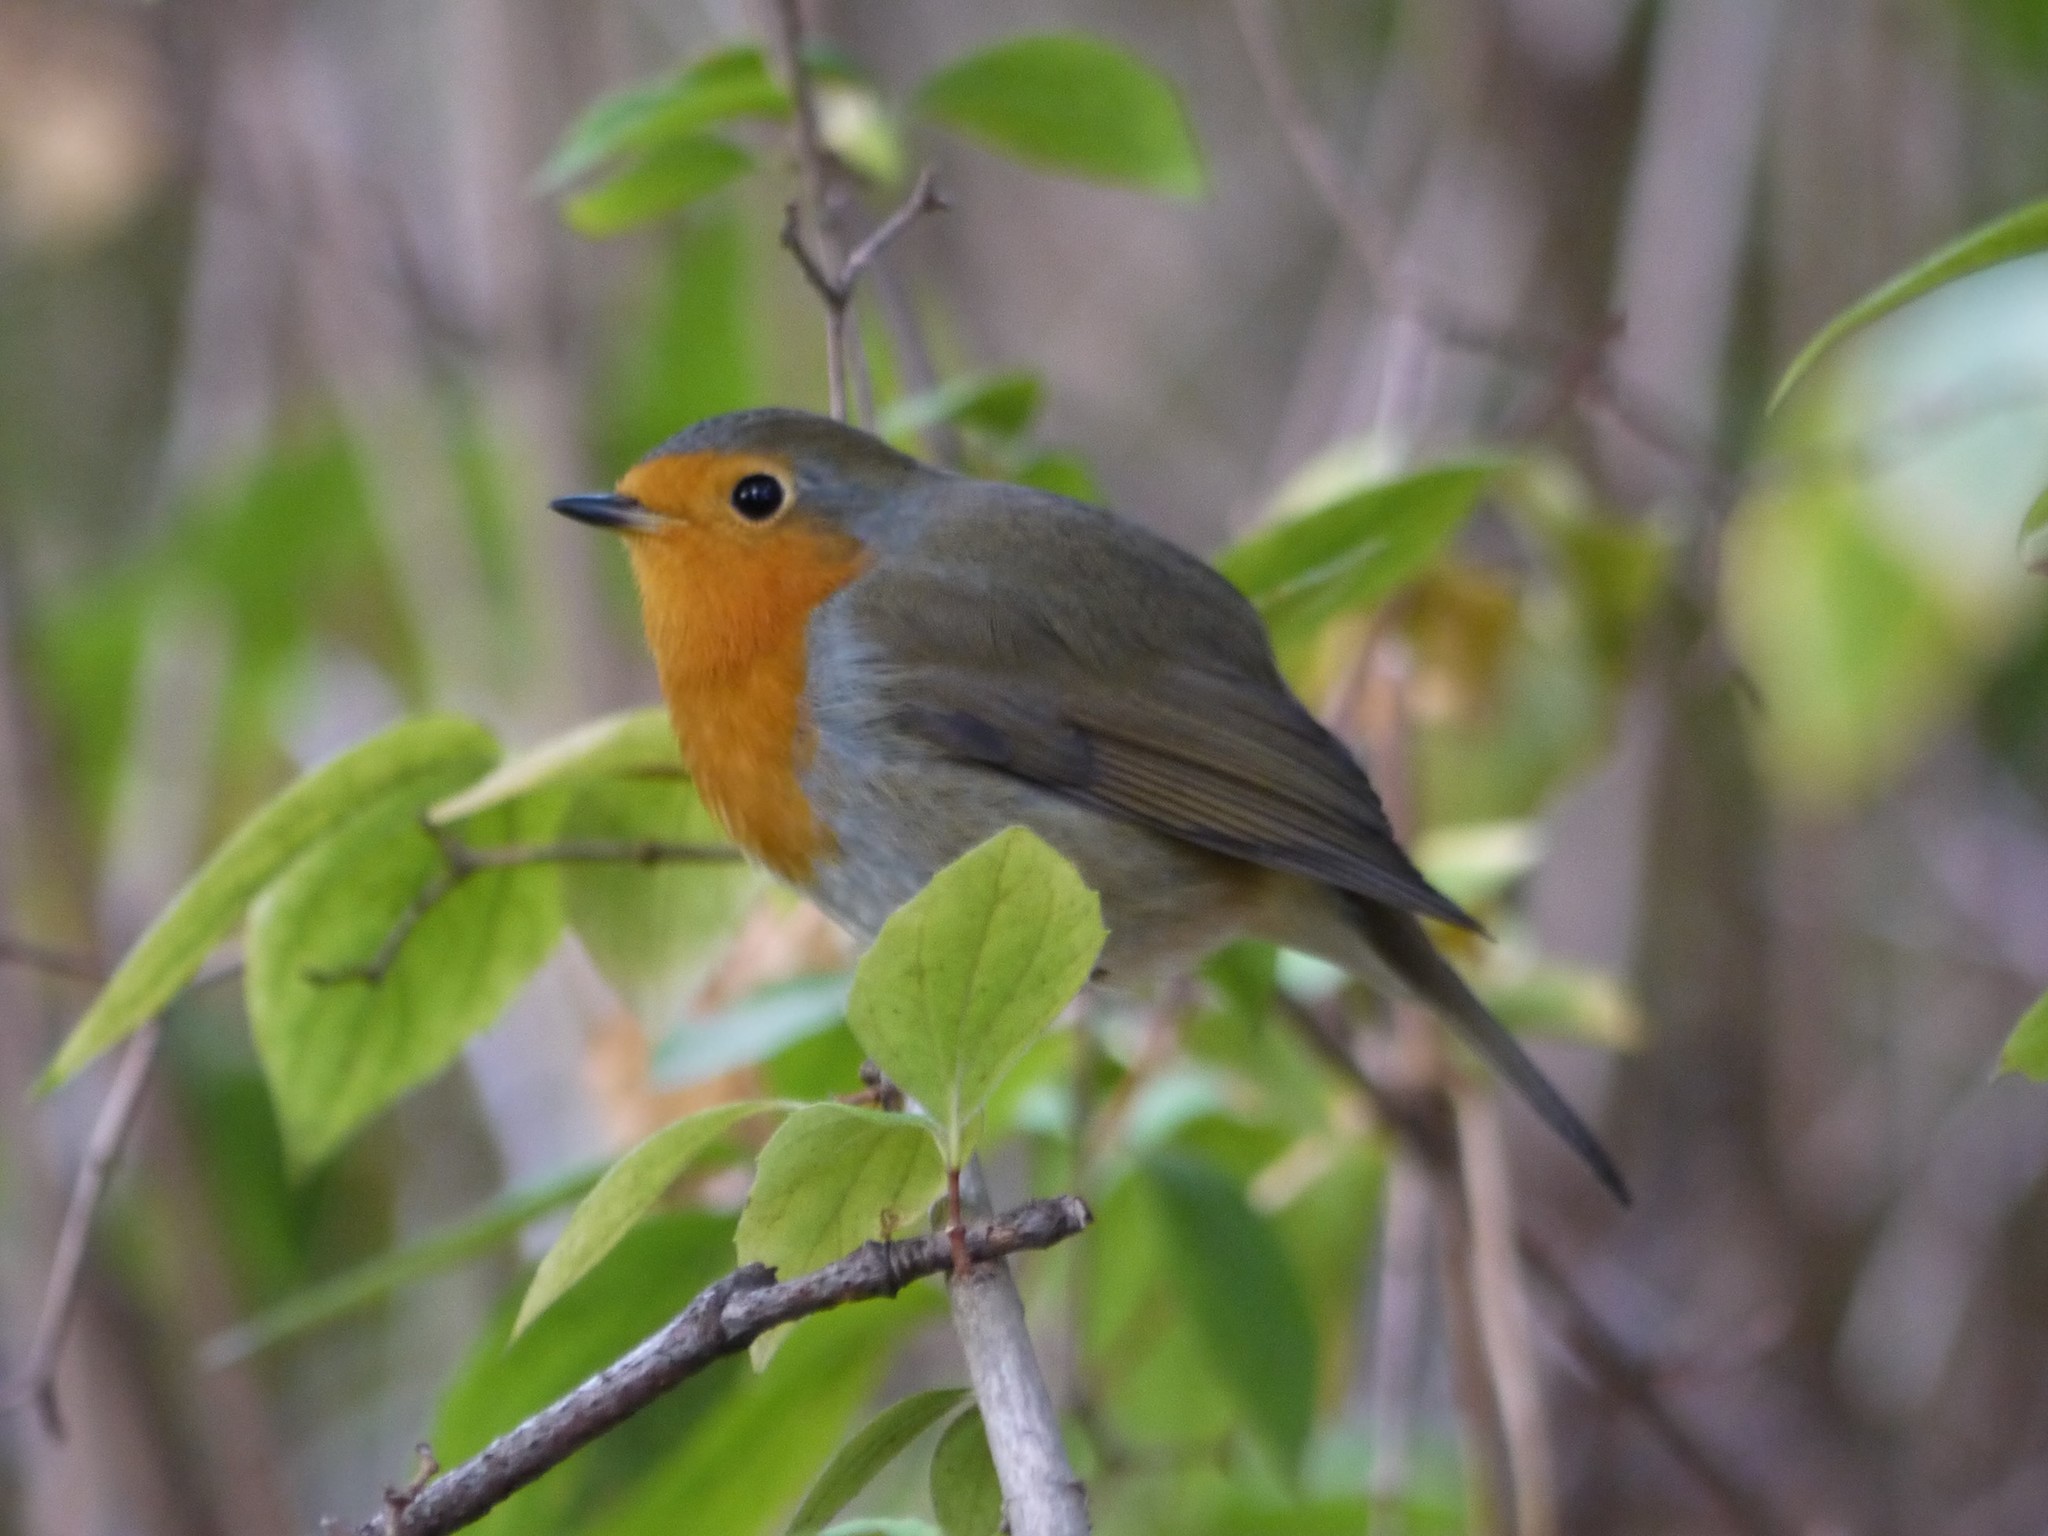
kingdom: Animalia
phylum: Chordata
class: Aves
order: Passeriformes
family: Muscicapidae
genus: Erithacus
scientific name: Erithacus rubecula
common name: European robin
